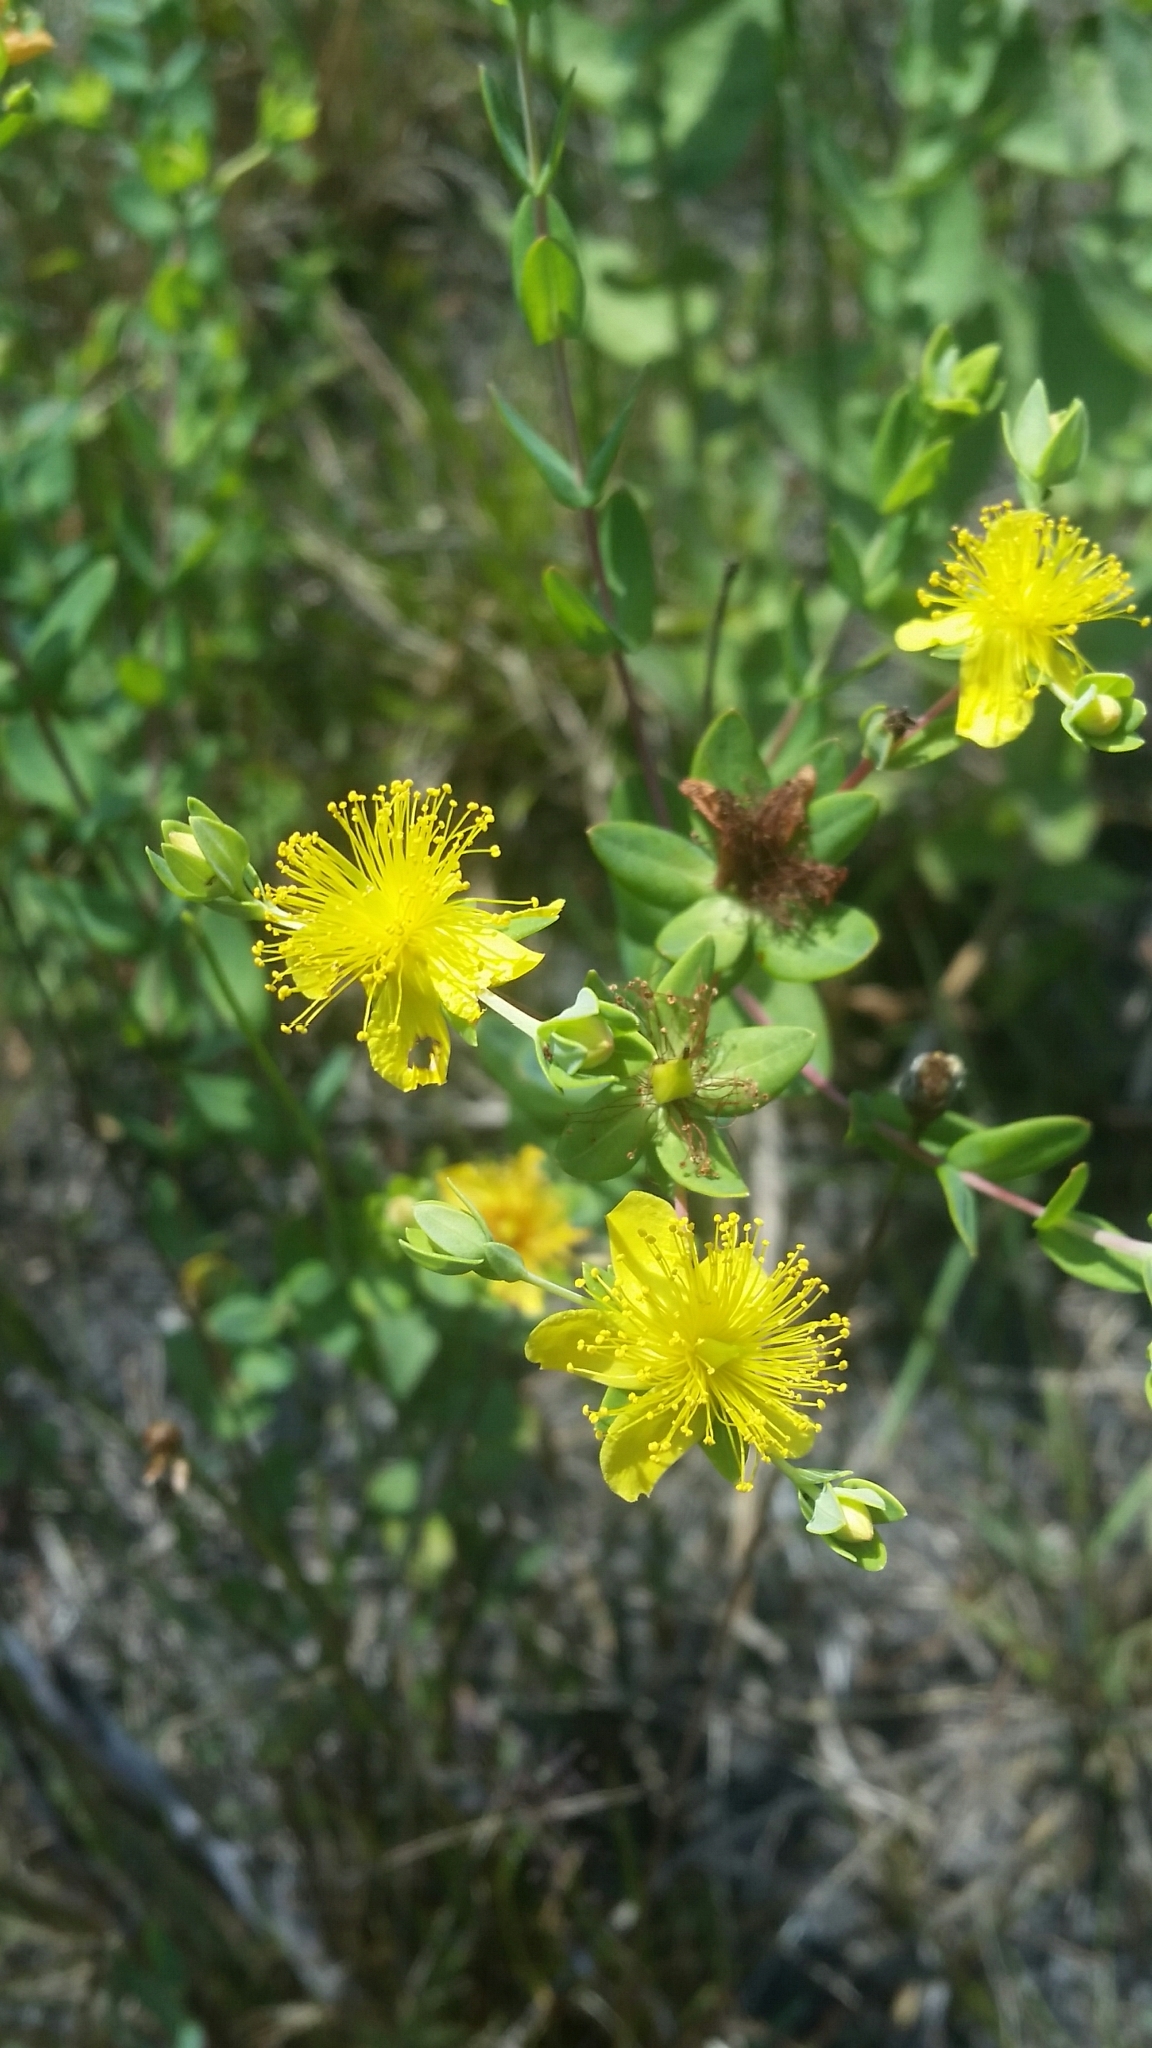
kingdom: Plantae
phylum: Tracheophyta
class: Magnoliopsida
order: Malpighiales
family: Hypericaceae
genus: Hypericum
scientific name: Hypericum myrtifolium
